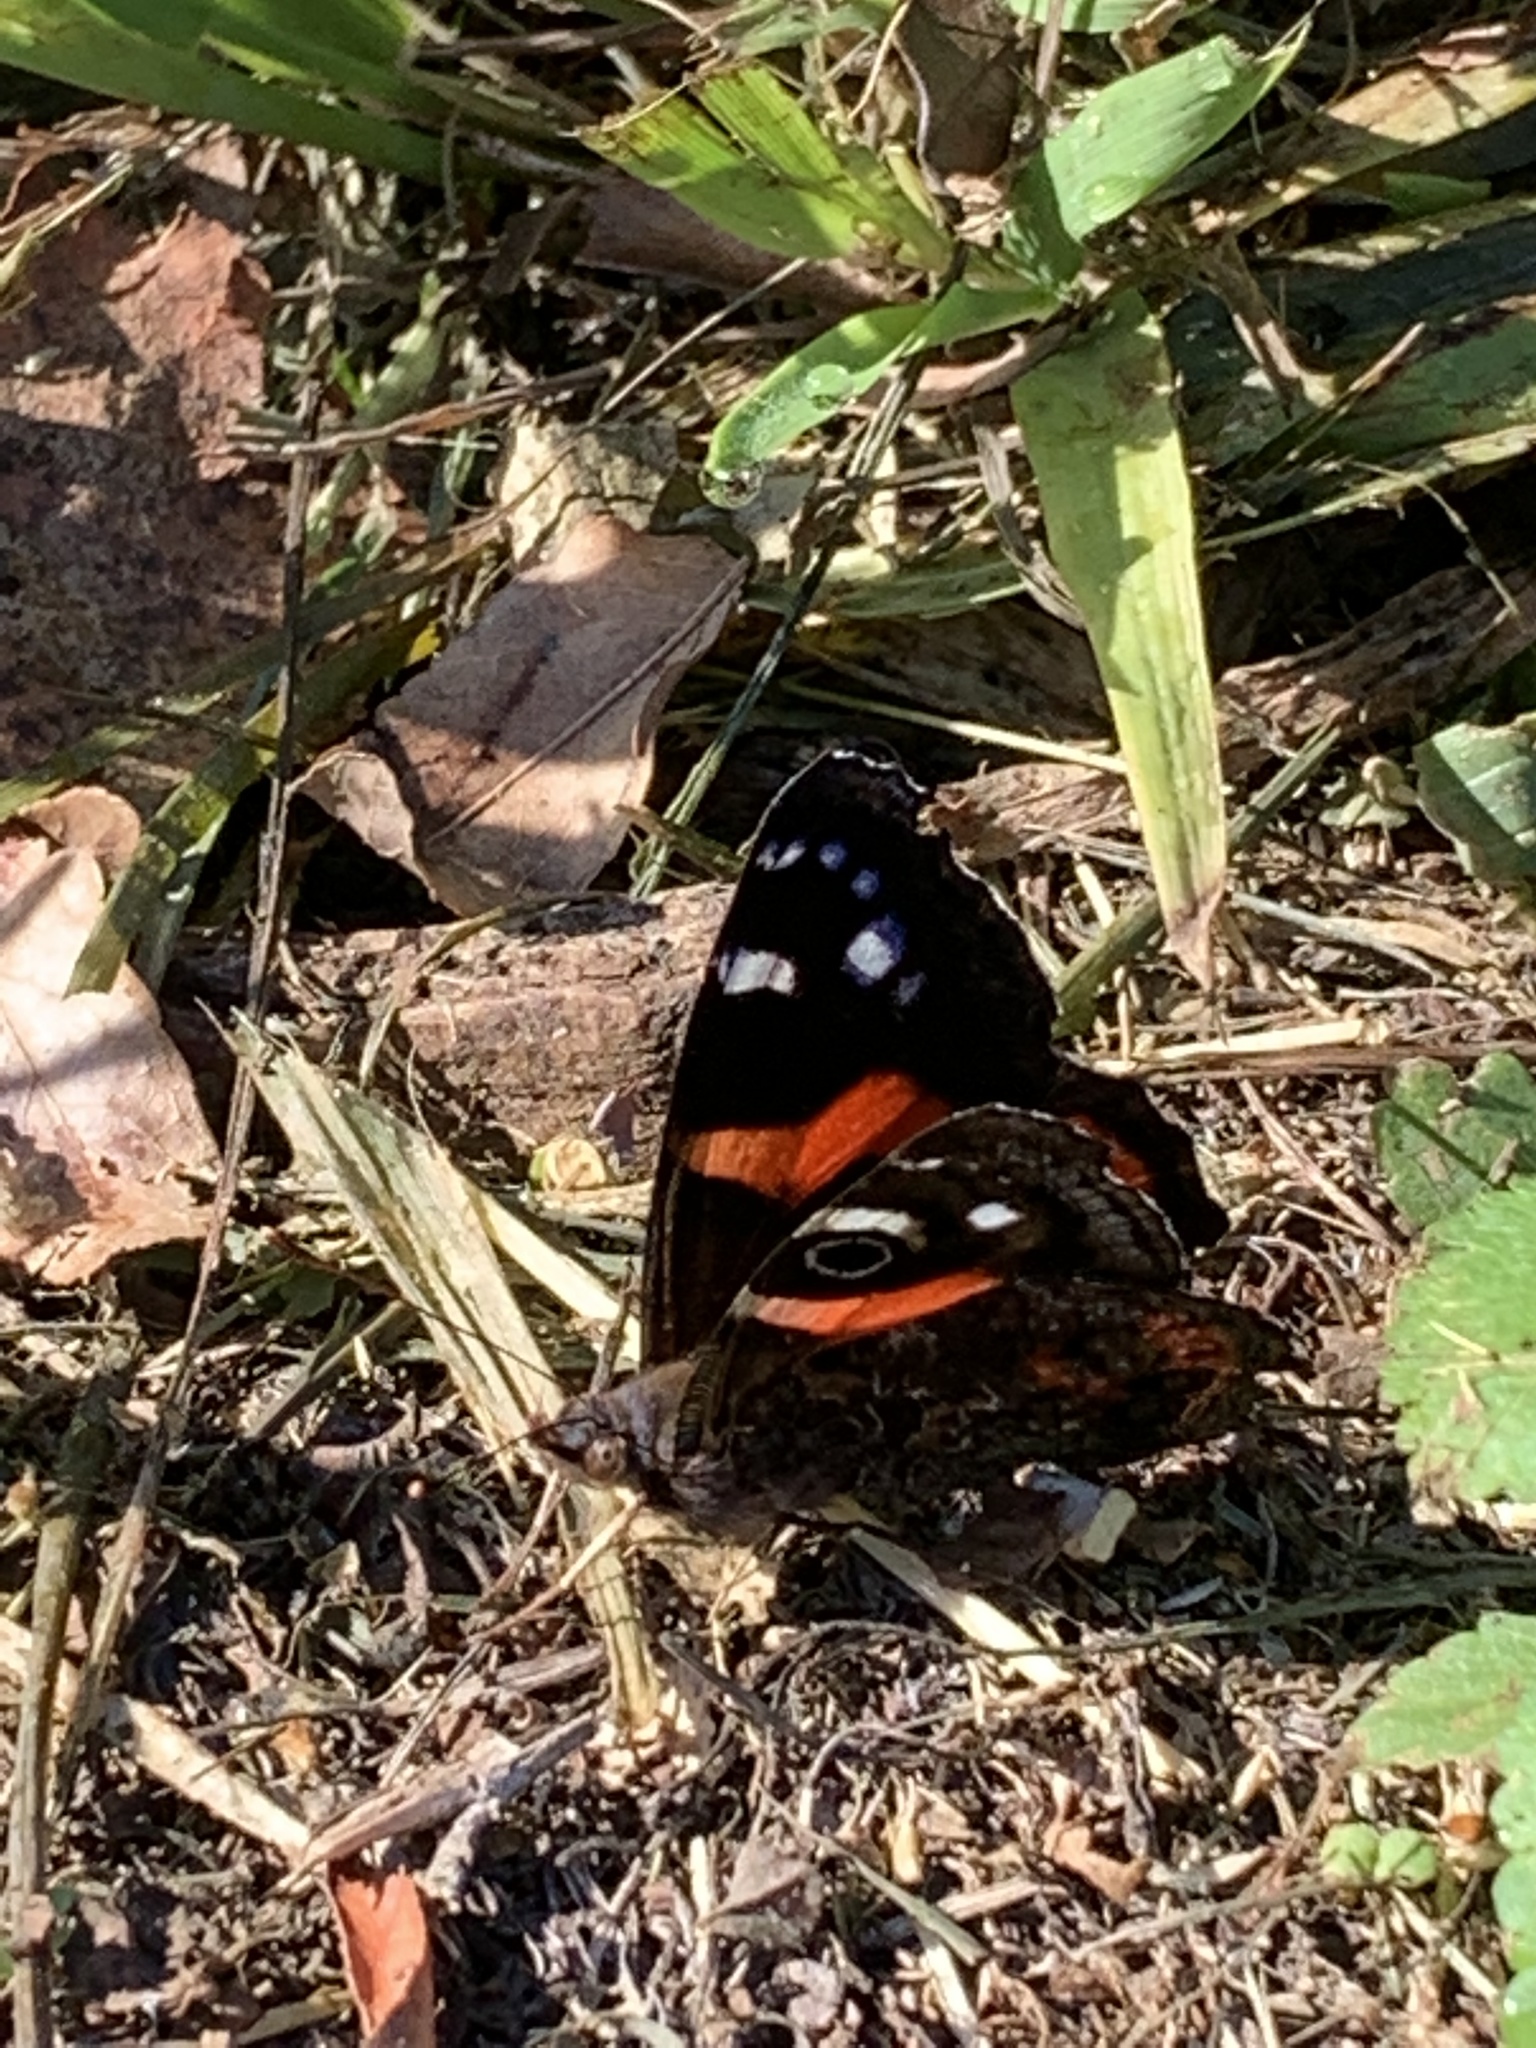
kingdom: Animalia
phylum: Arthropoda
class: Insecta
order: Lepidoptera
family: Nymphalidae
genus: Vanessa
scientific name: Vanessa gonerilla
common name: New zealand red admiral
